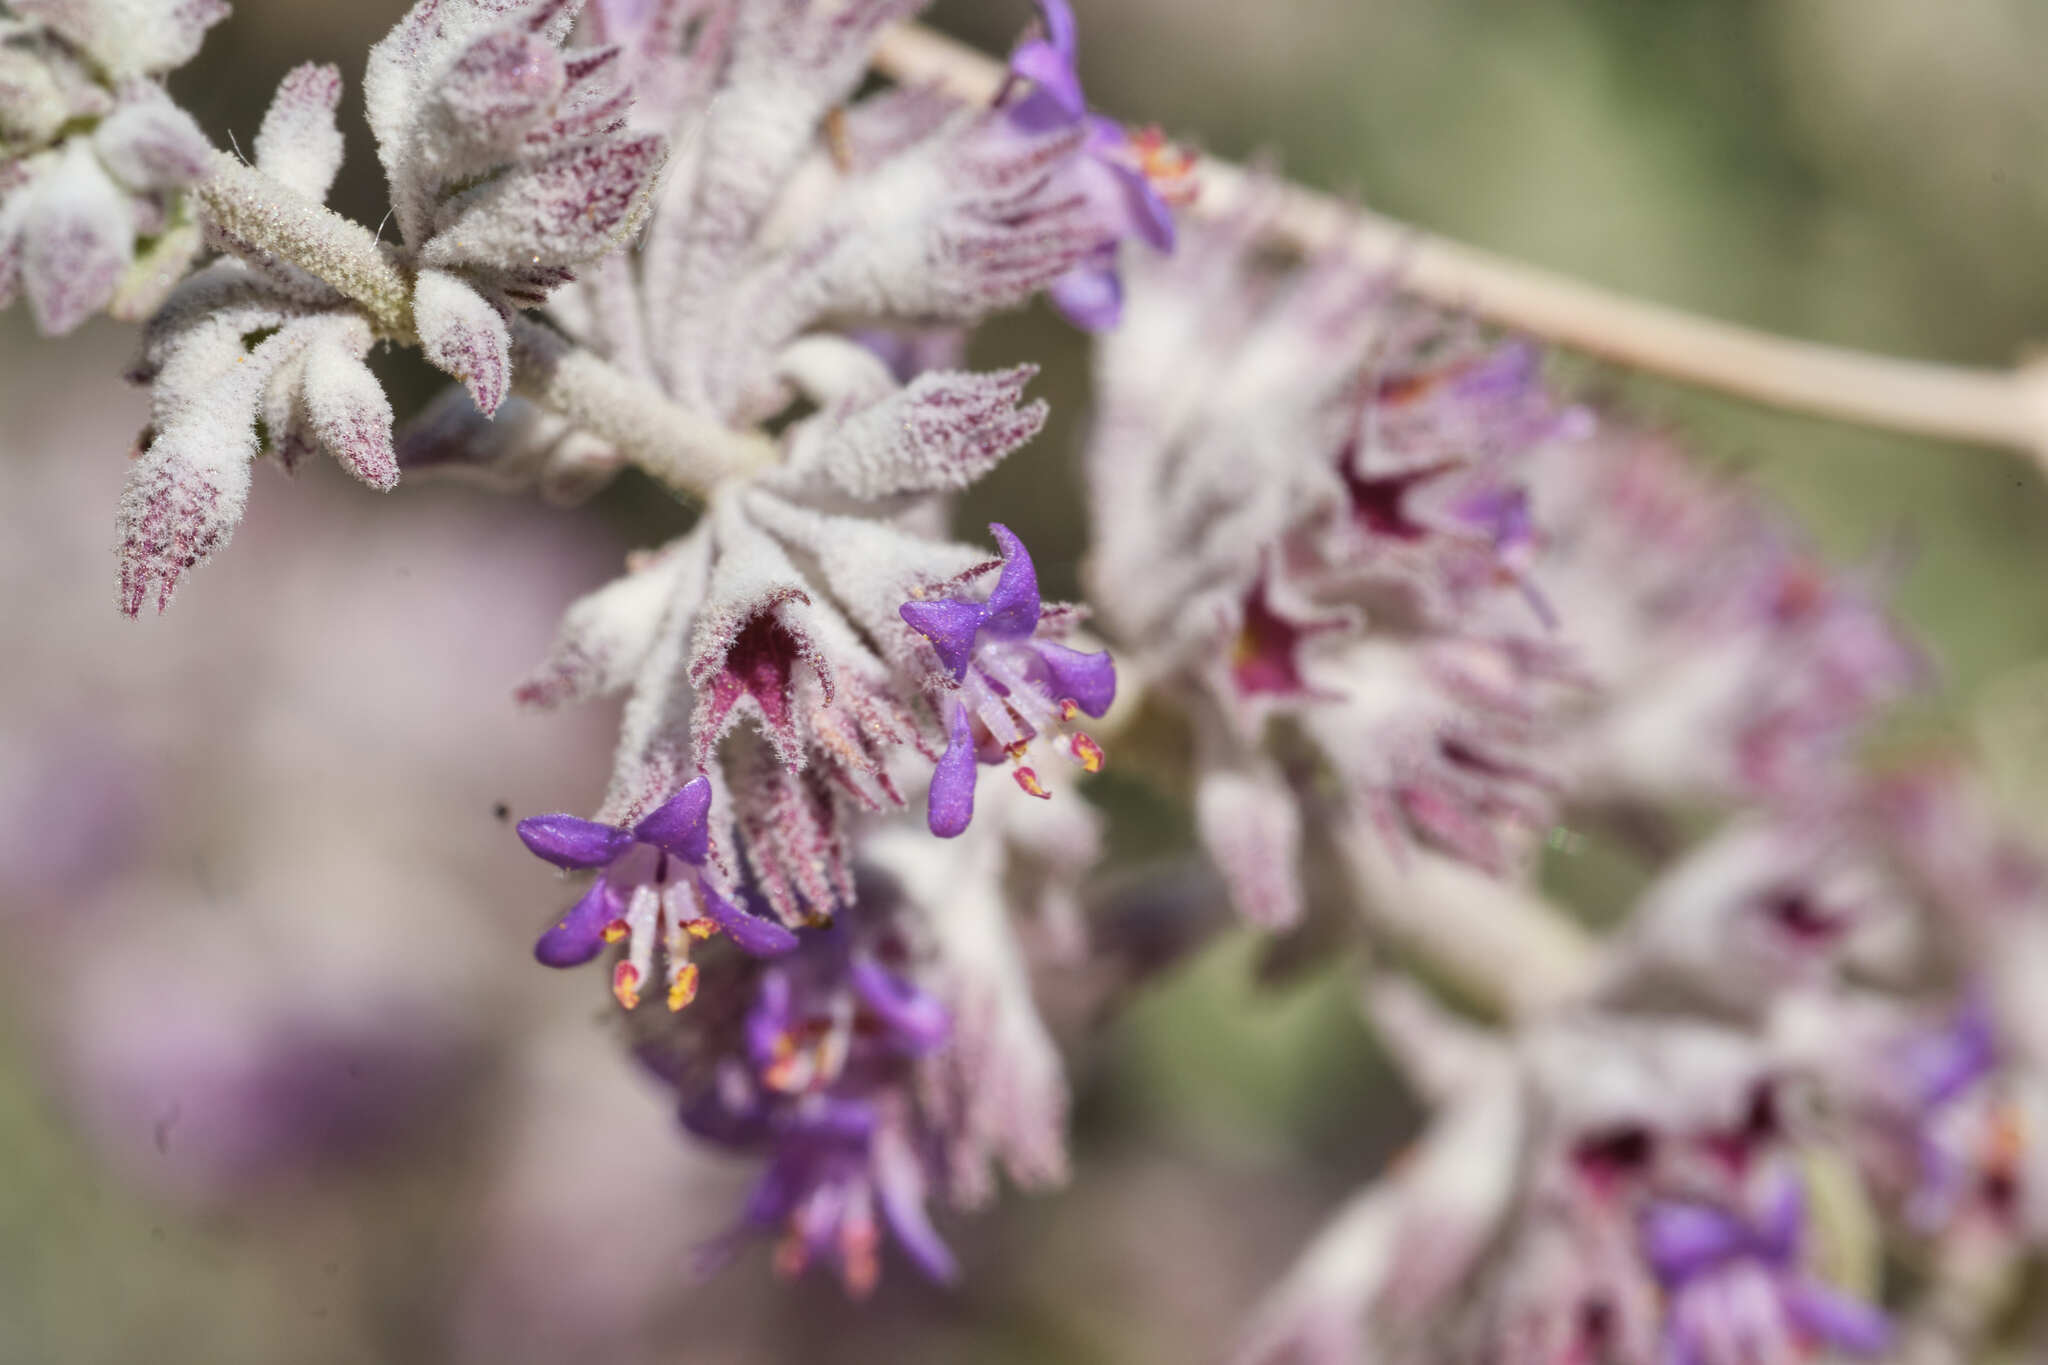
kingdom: Plantae
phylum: Tracheophyta
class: Magnoliopsida
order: Lamiales
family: Lamiaceae
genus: Condea
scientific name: Condea emoryi
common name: Chia
